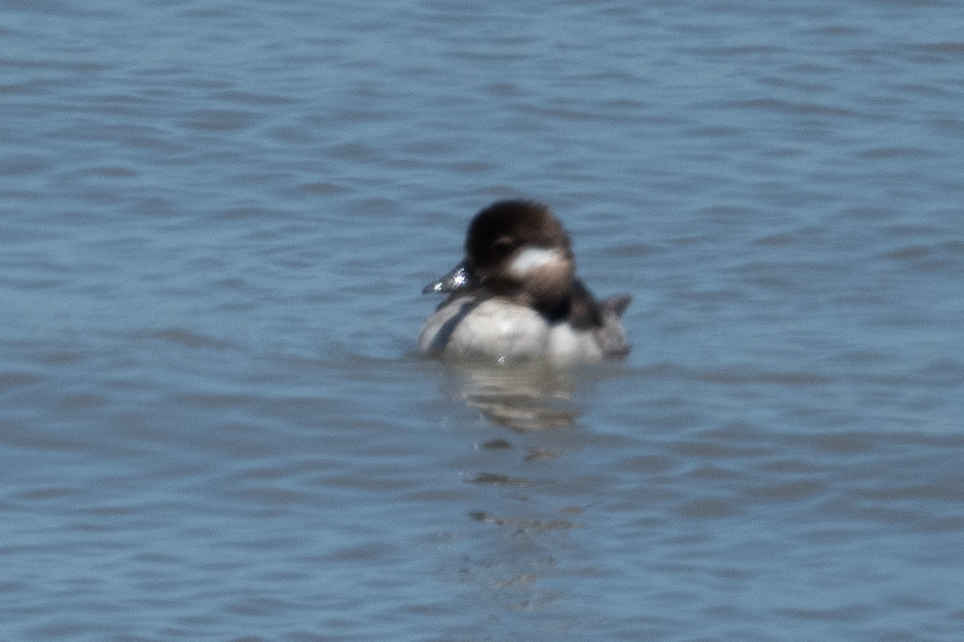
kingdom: Animalia
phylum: Chordata
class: Aves
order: Anseriformes
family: Anatidae
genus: Bucephala
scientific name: Bucephala albeola
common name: Bufflehead
